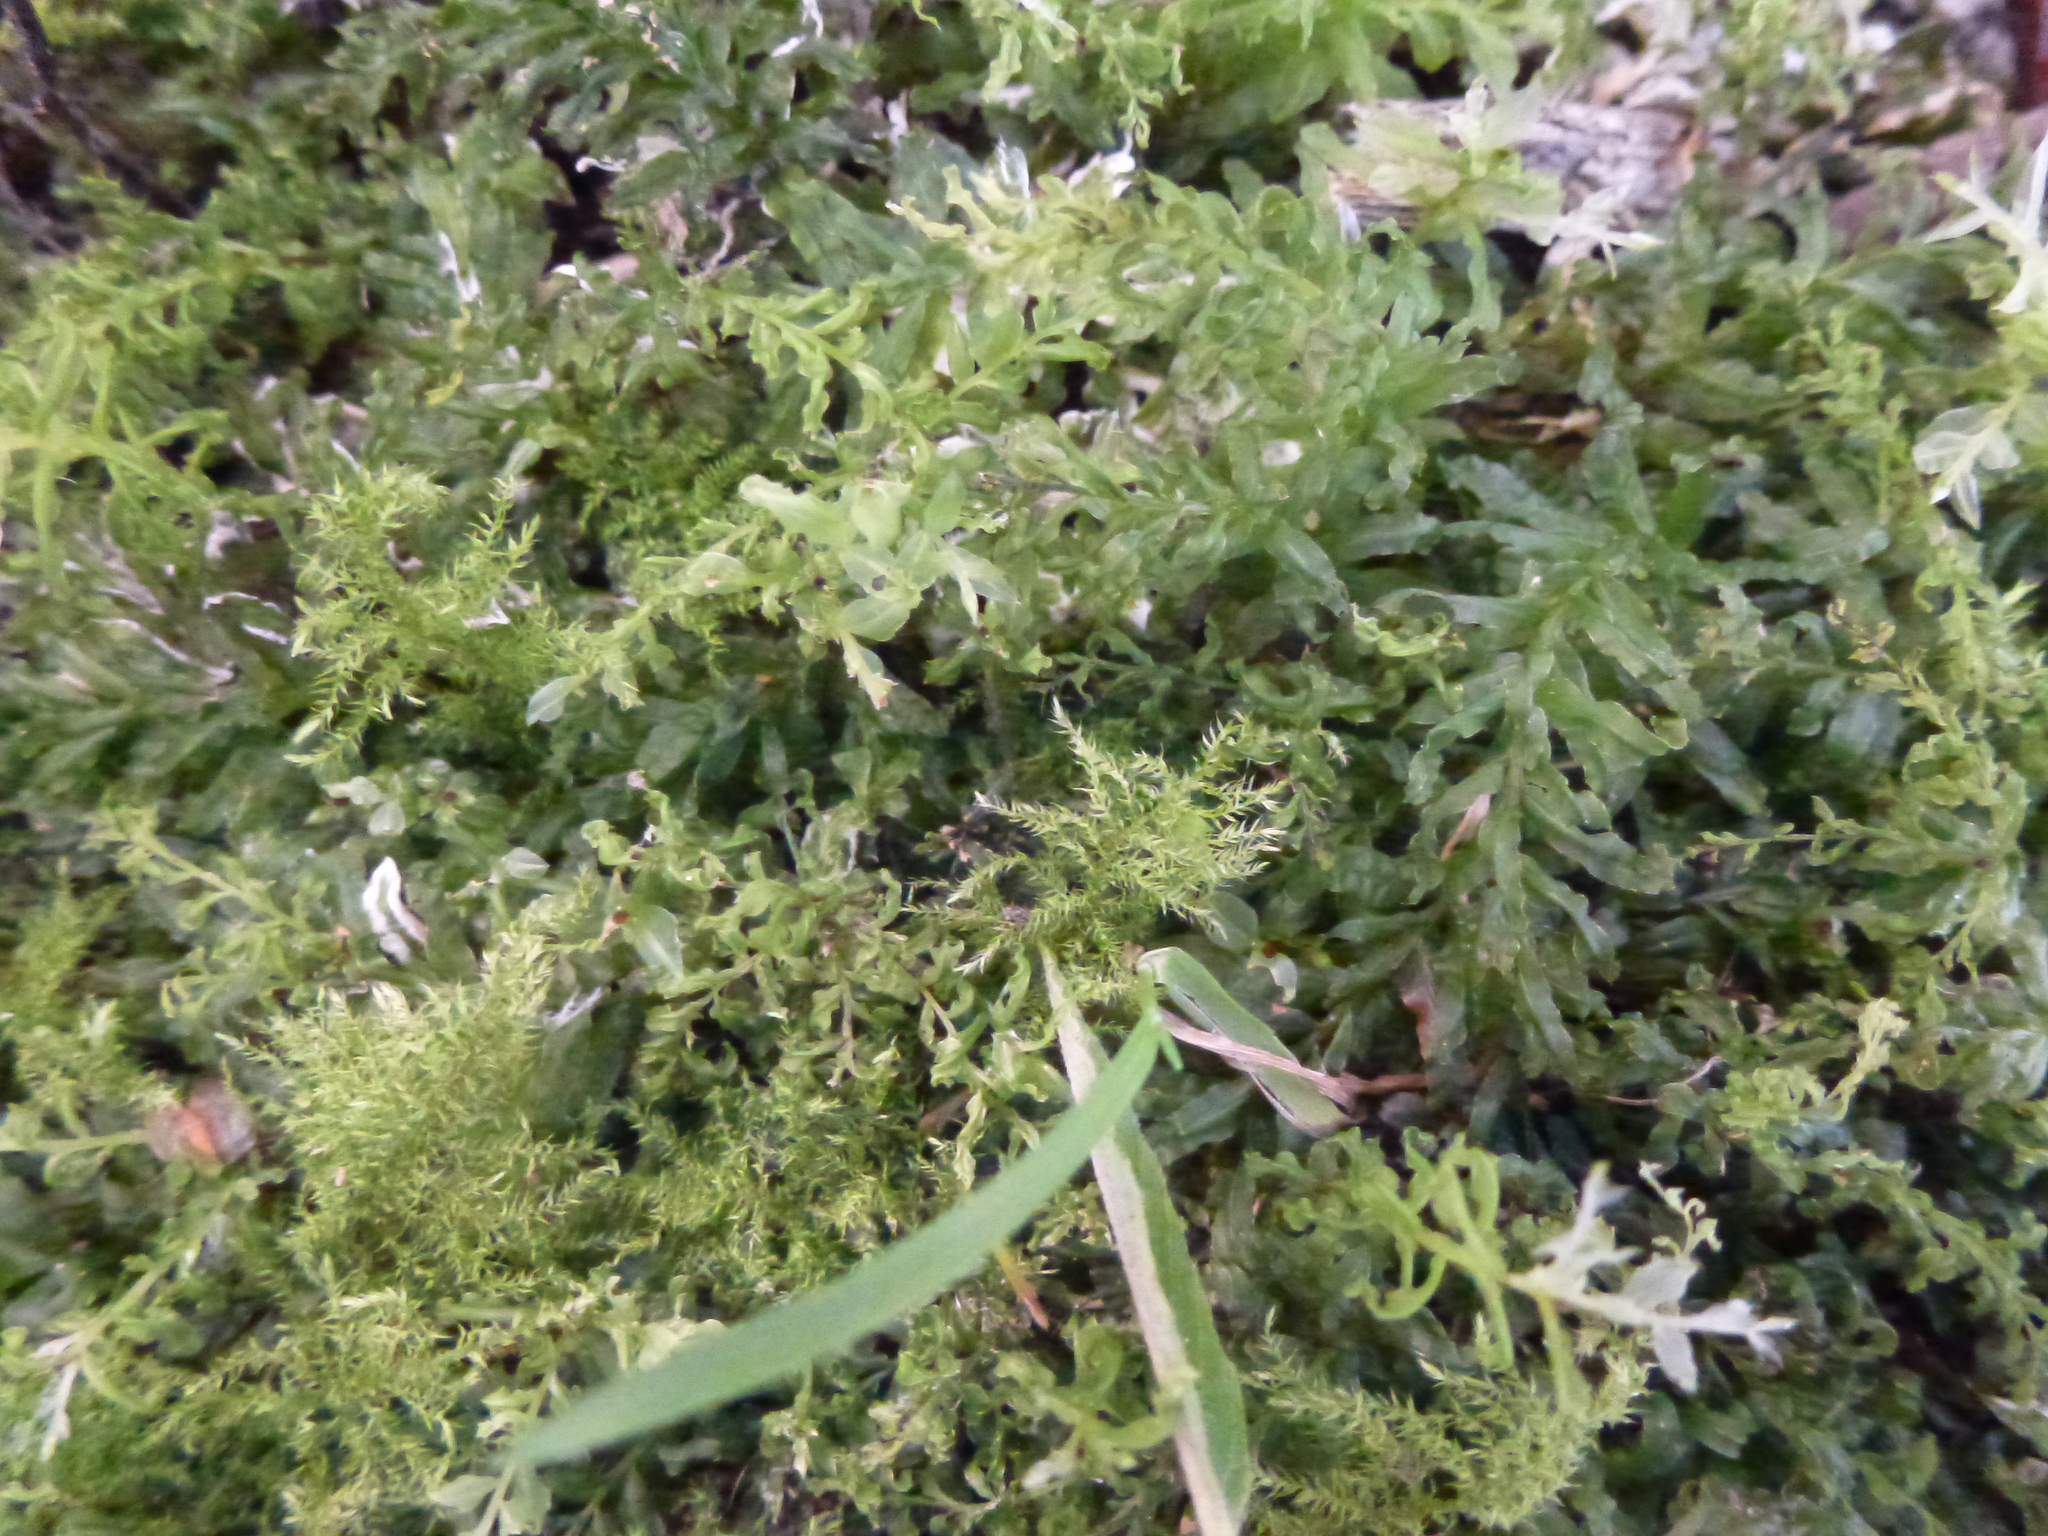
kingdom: Plantae
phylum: Bryophyta
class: Bryopsida
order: Bryales
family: Mniaceae
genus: Plagiomnium
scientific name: Plagiomnium undulatum
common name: Hart's-tongue thyme-moss
